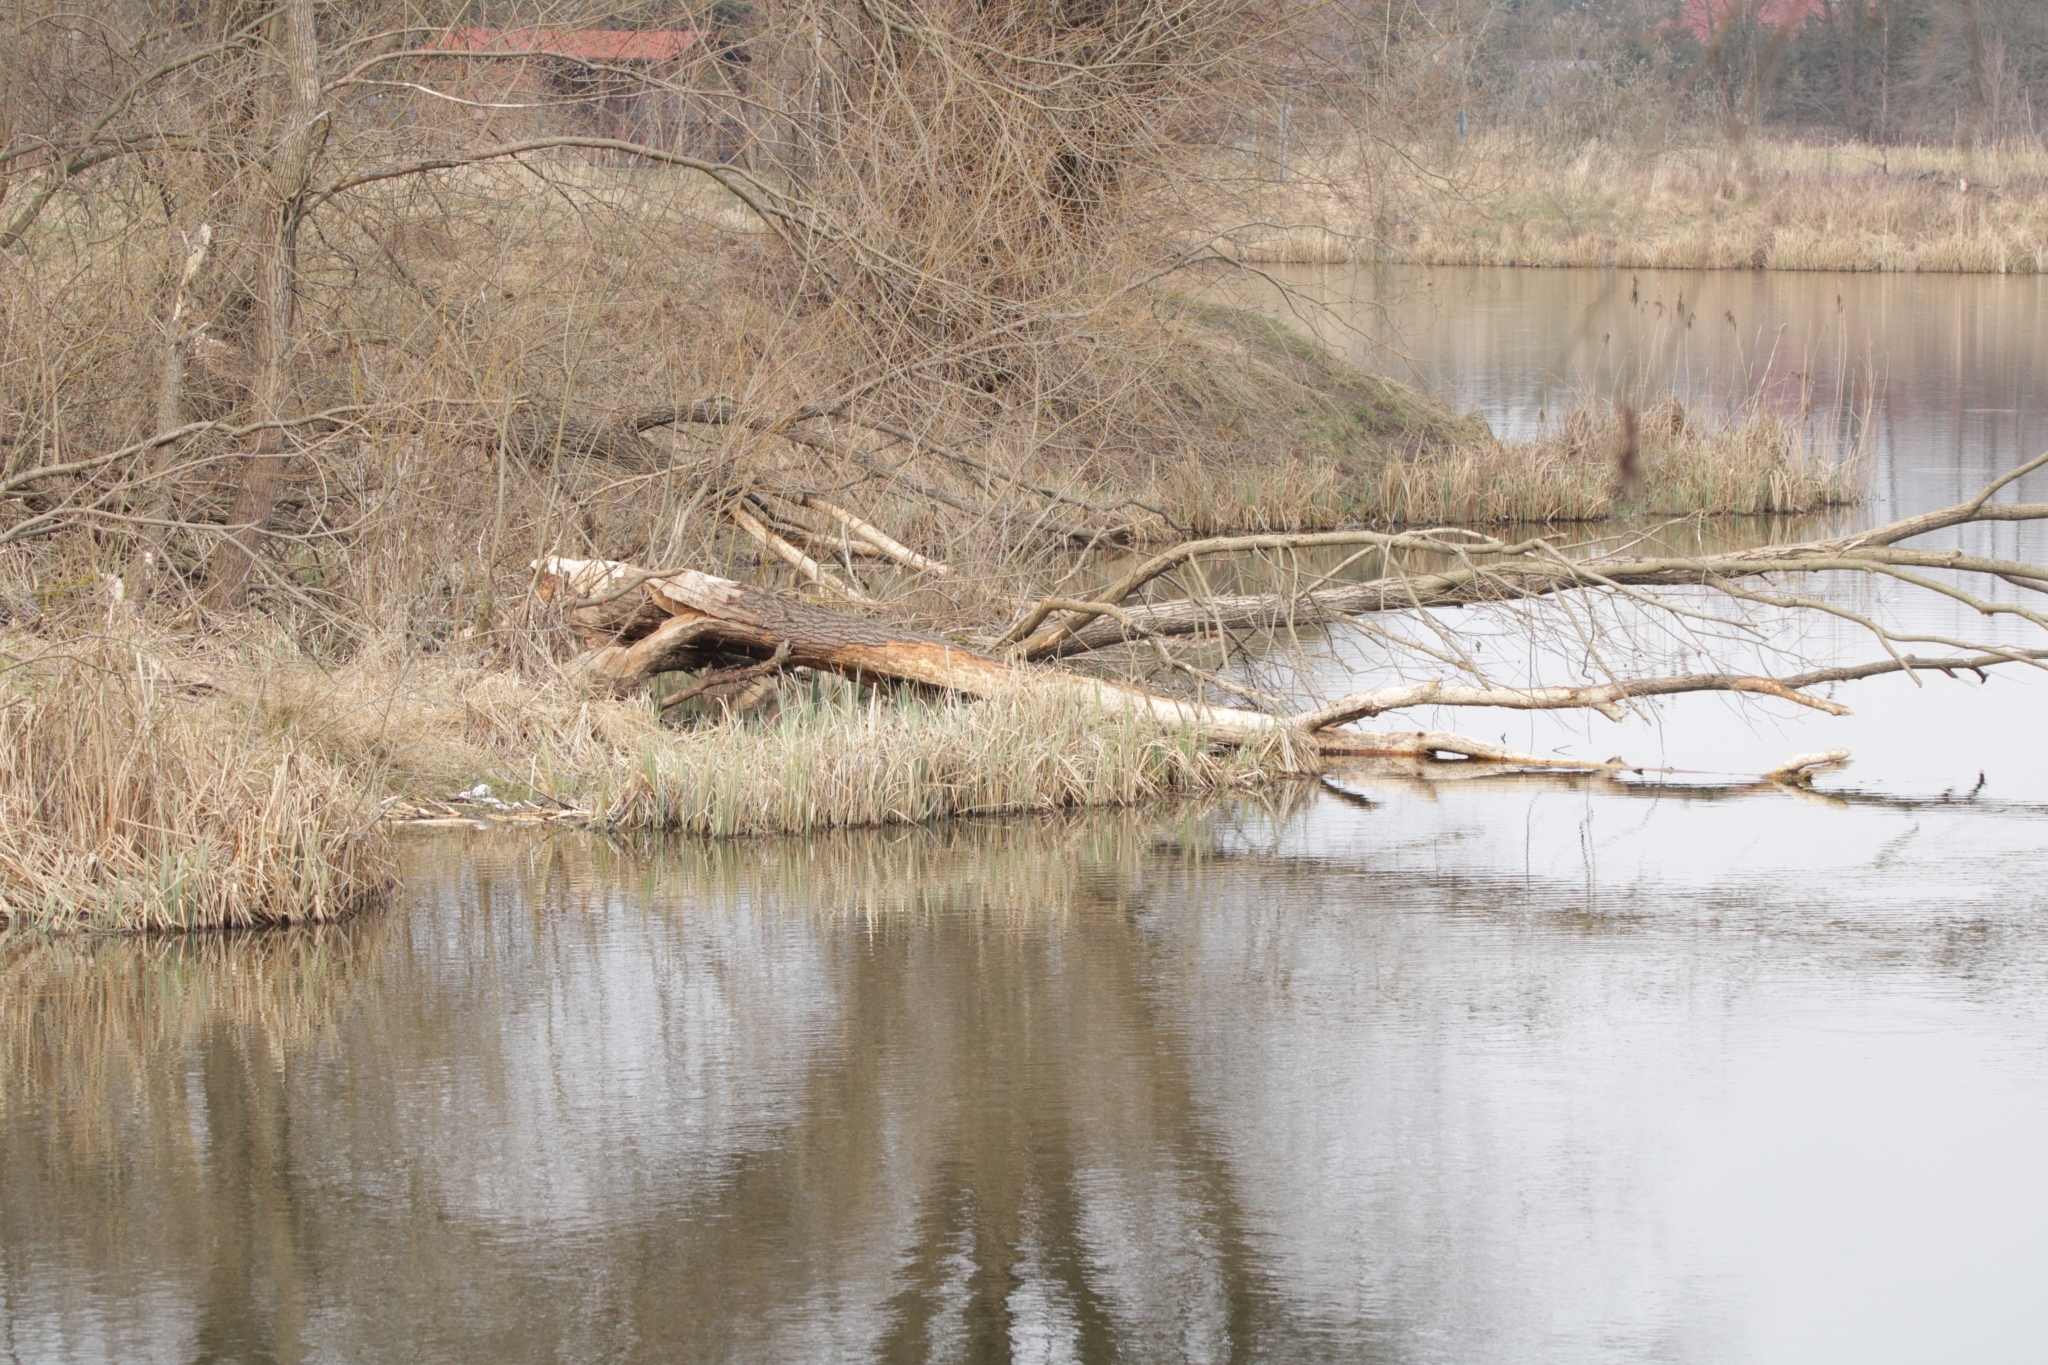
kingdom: Animalia
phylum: Chordata
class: Mammalia
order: Rodentia
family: Castoridae
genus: Castor
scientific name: Castor fiber
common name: Eurasian beaver
